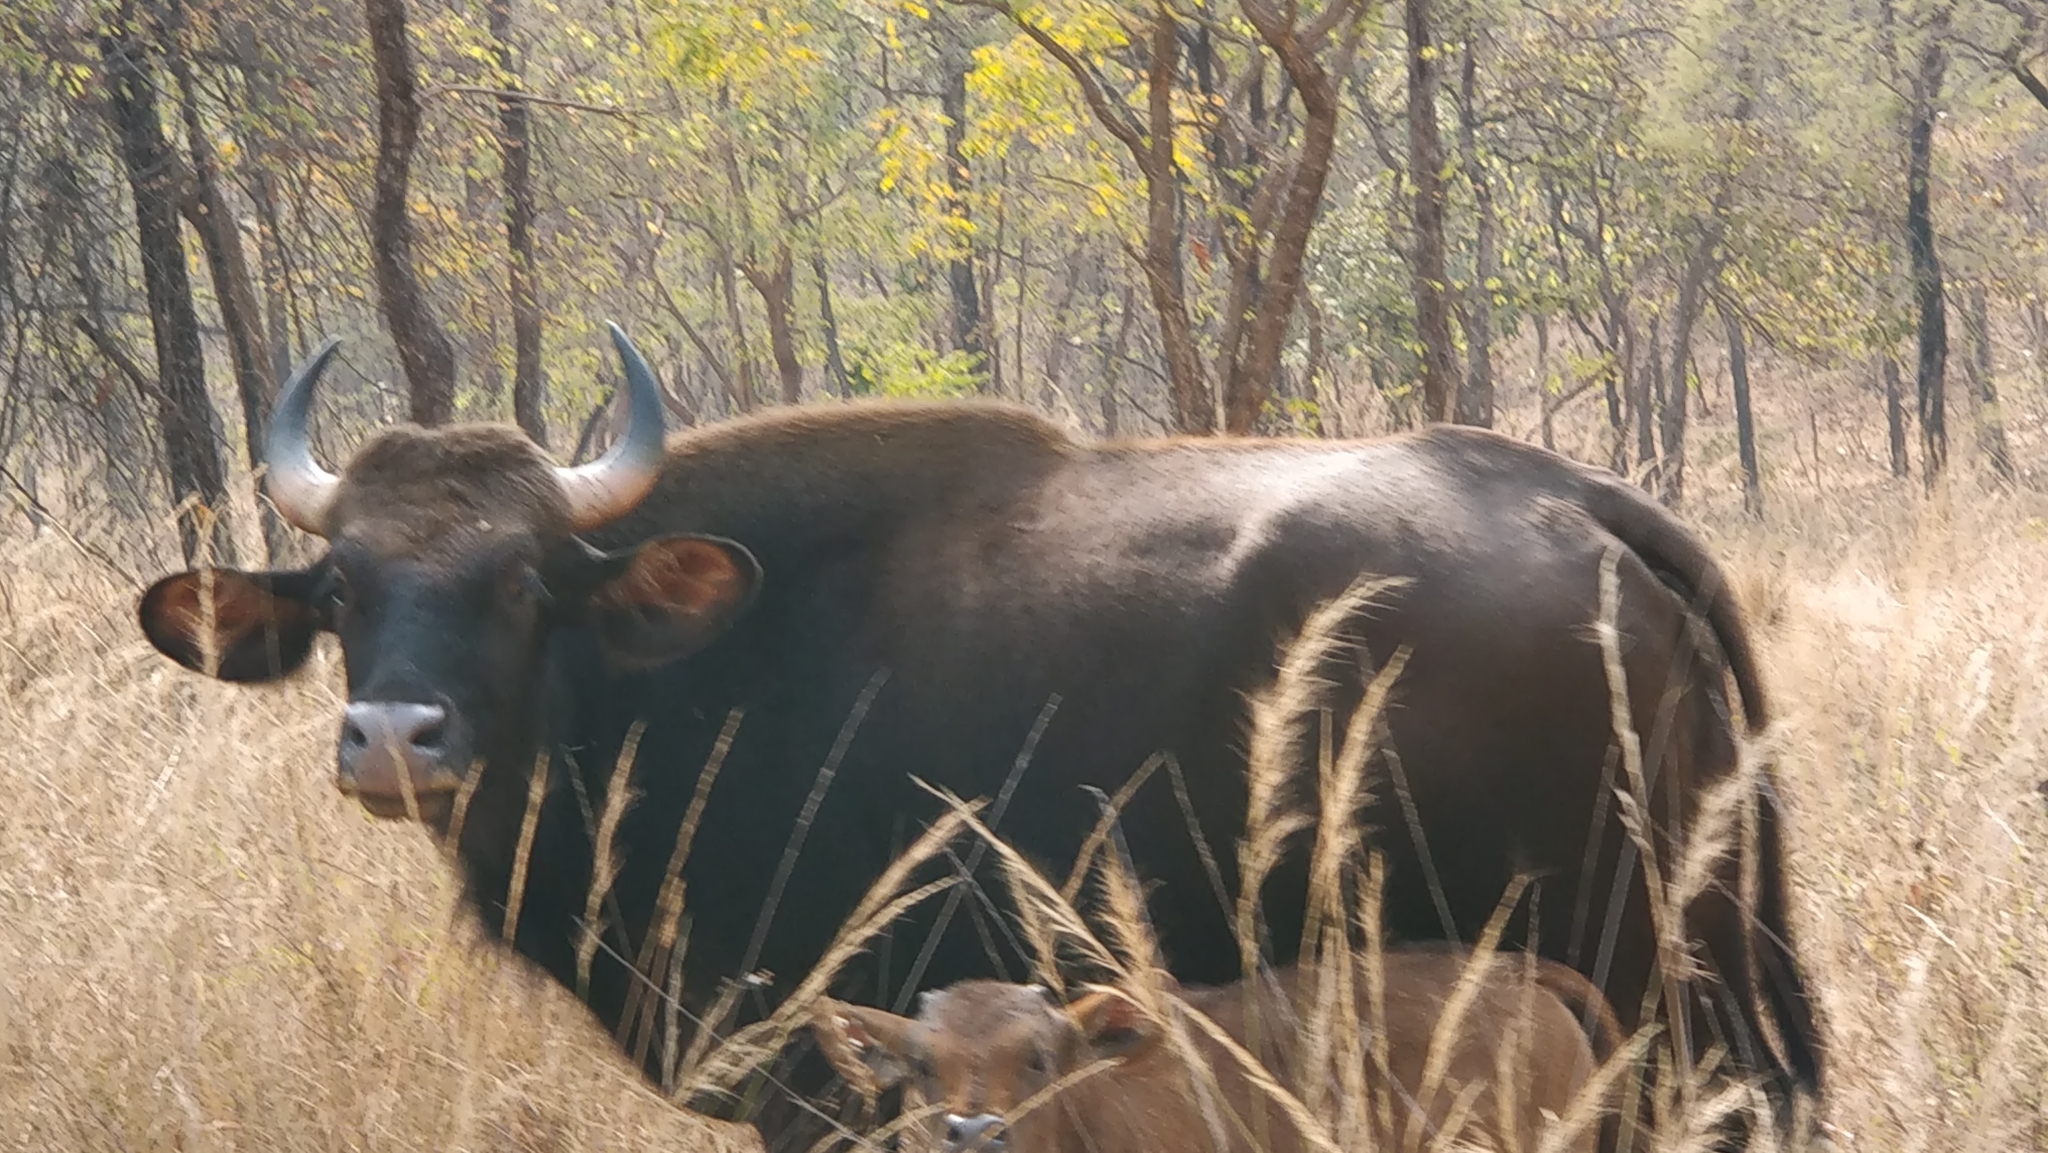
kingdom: Animalia
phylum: Chordata
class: Mammalia
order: Artiodactyla
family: Bovidae
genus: Bos
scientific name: Bos frontalis
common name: Gaur
